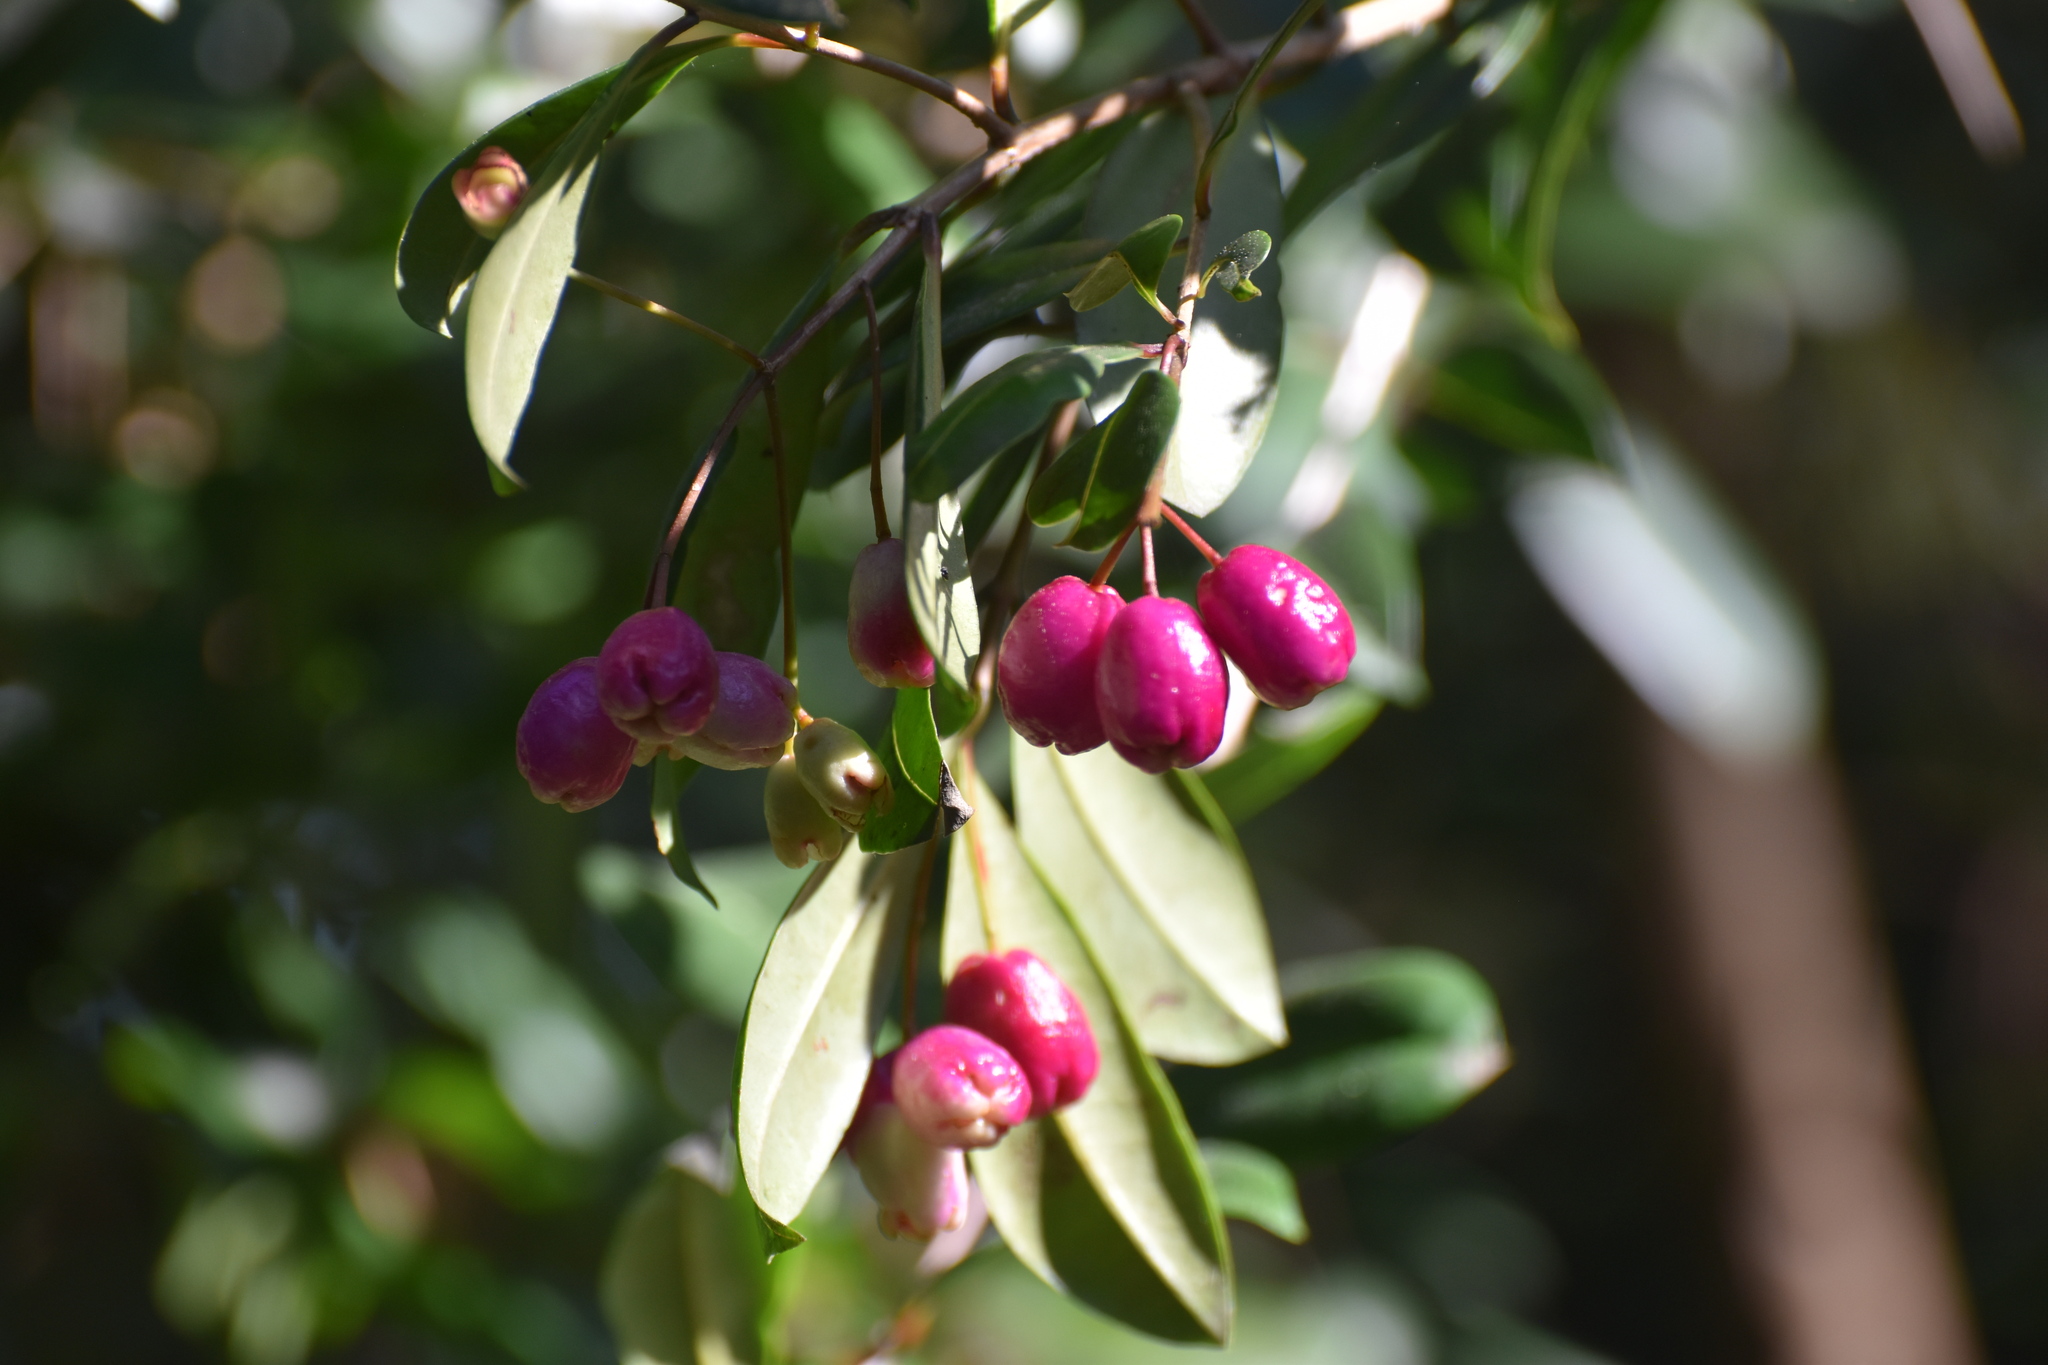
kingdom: Plantae
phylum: Tracheophyta
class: Magnoliopsida
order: Myrtales
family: Myrtaceae
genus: Syzygium
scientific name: Syzygium australe
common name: Australian brush-cherry
